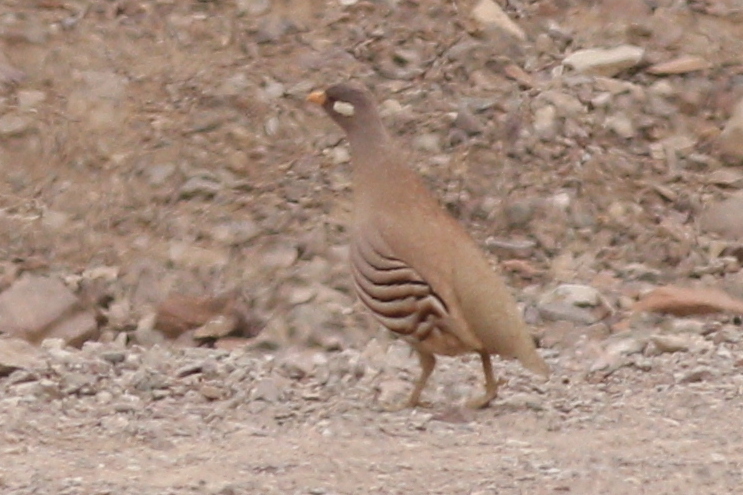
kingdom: Animalia
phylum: Chordata
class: Aves
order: Galliformes
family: Phasianidae
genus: Ammoperdix
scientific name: Ammoperdix heyi
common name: Sand partridge
